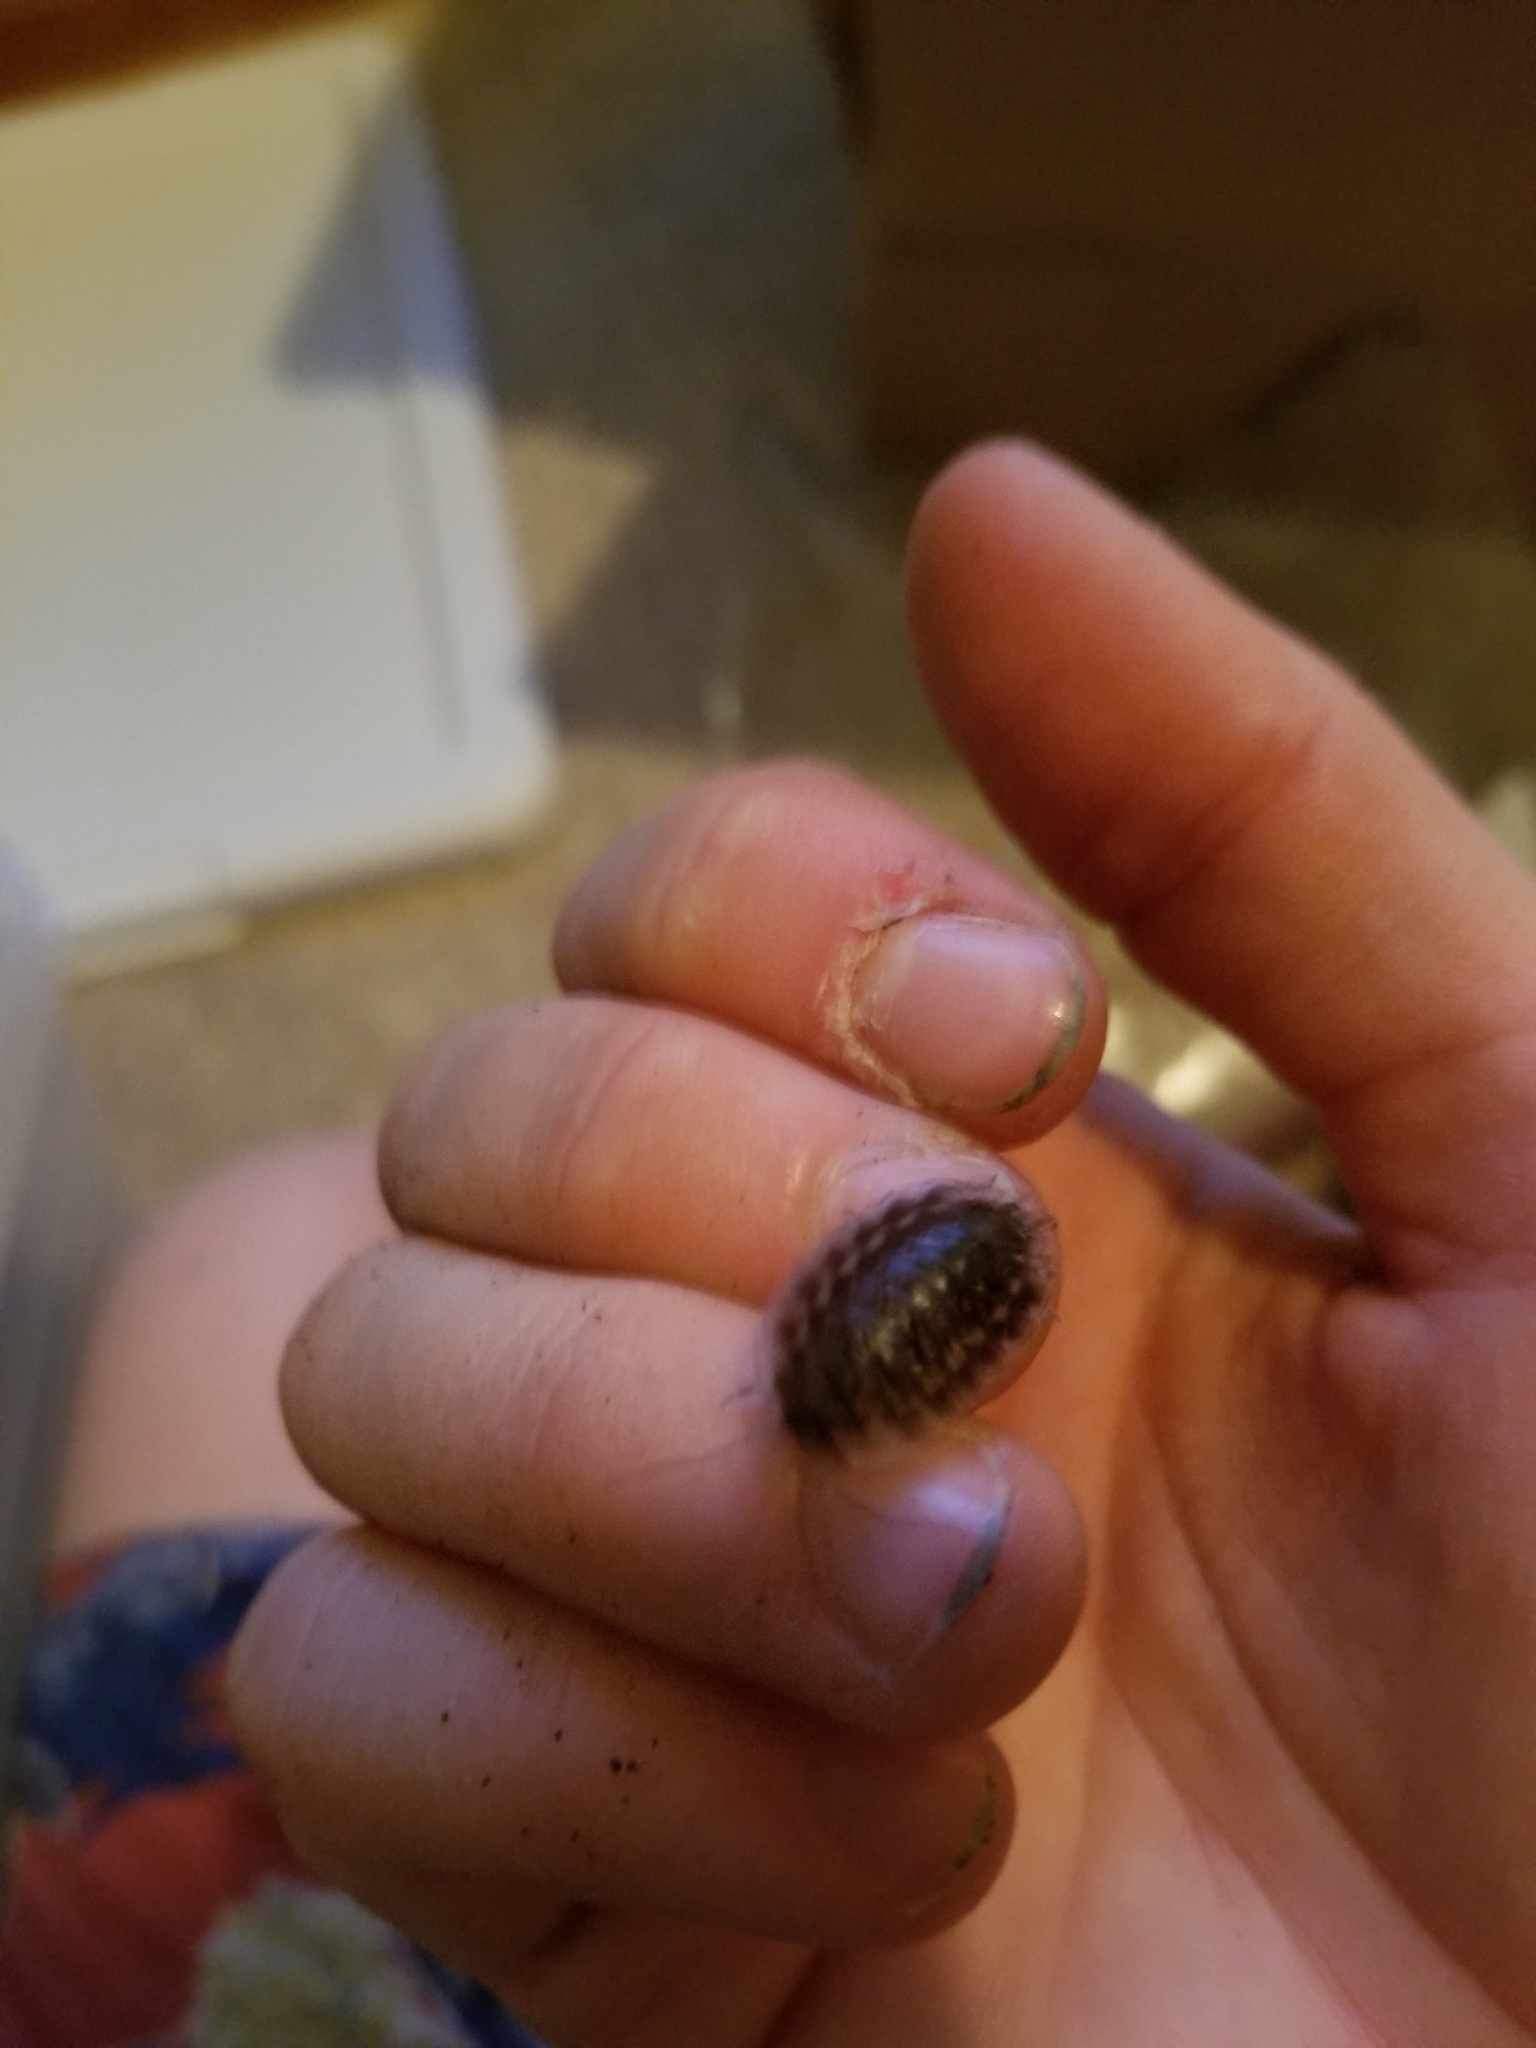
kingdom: Animalia
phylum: Arthropoda
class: Malacostraca
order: Isopoda
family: Oniscidae
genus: Oniscus
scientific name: Oniscus asellus
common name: Common shiny woodlouse
